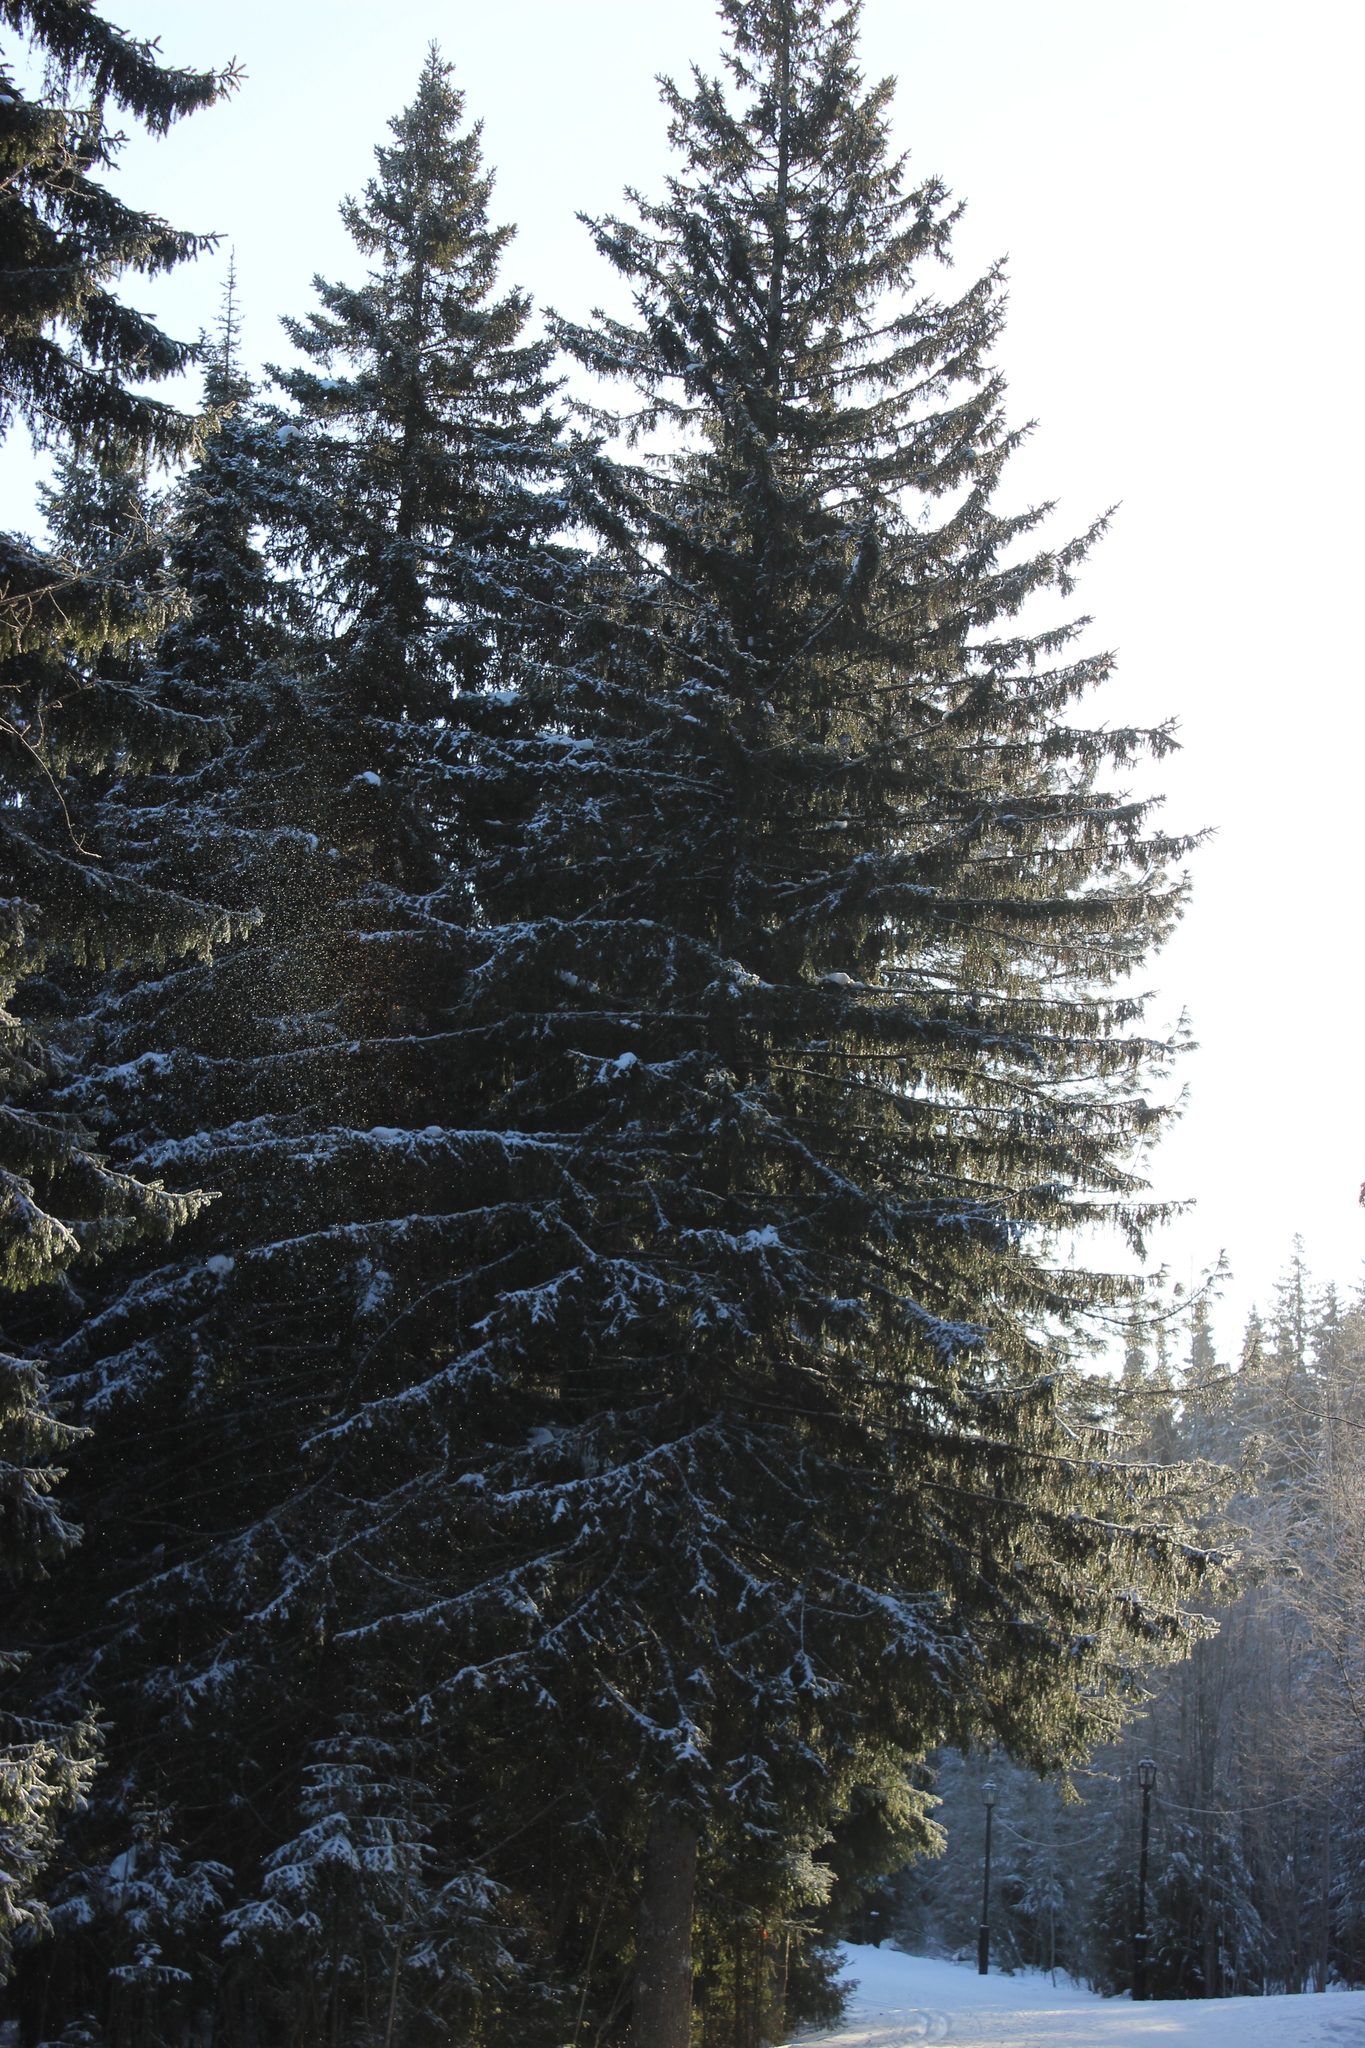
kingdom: Plantae
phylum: Tracheophyta
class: Pinopsida
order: Pinales
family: Pinaceae
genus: Picea
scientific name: Picea obovata
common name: Siberian spruce
